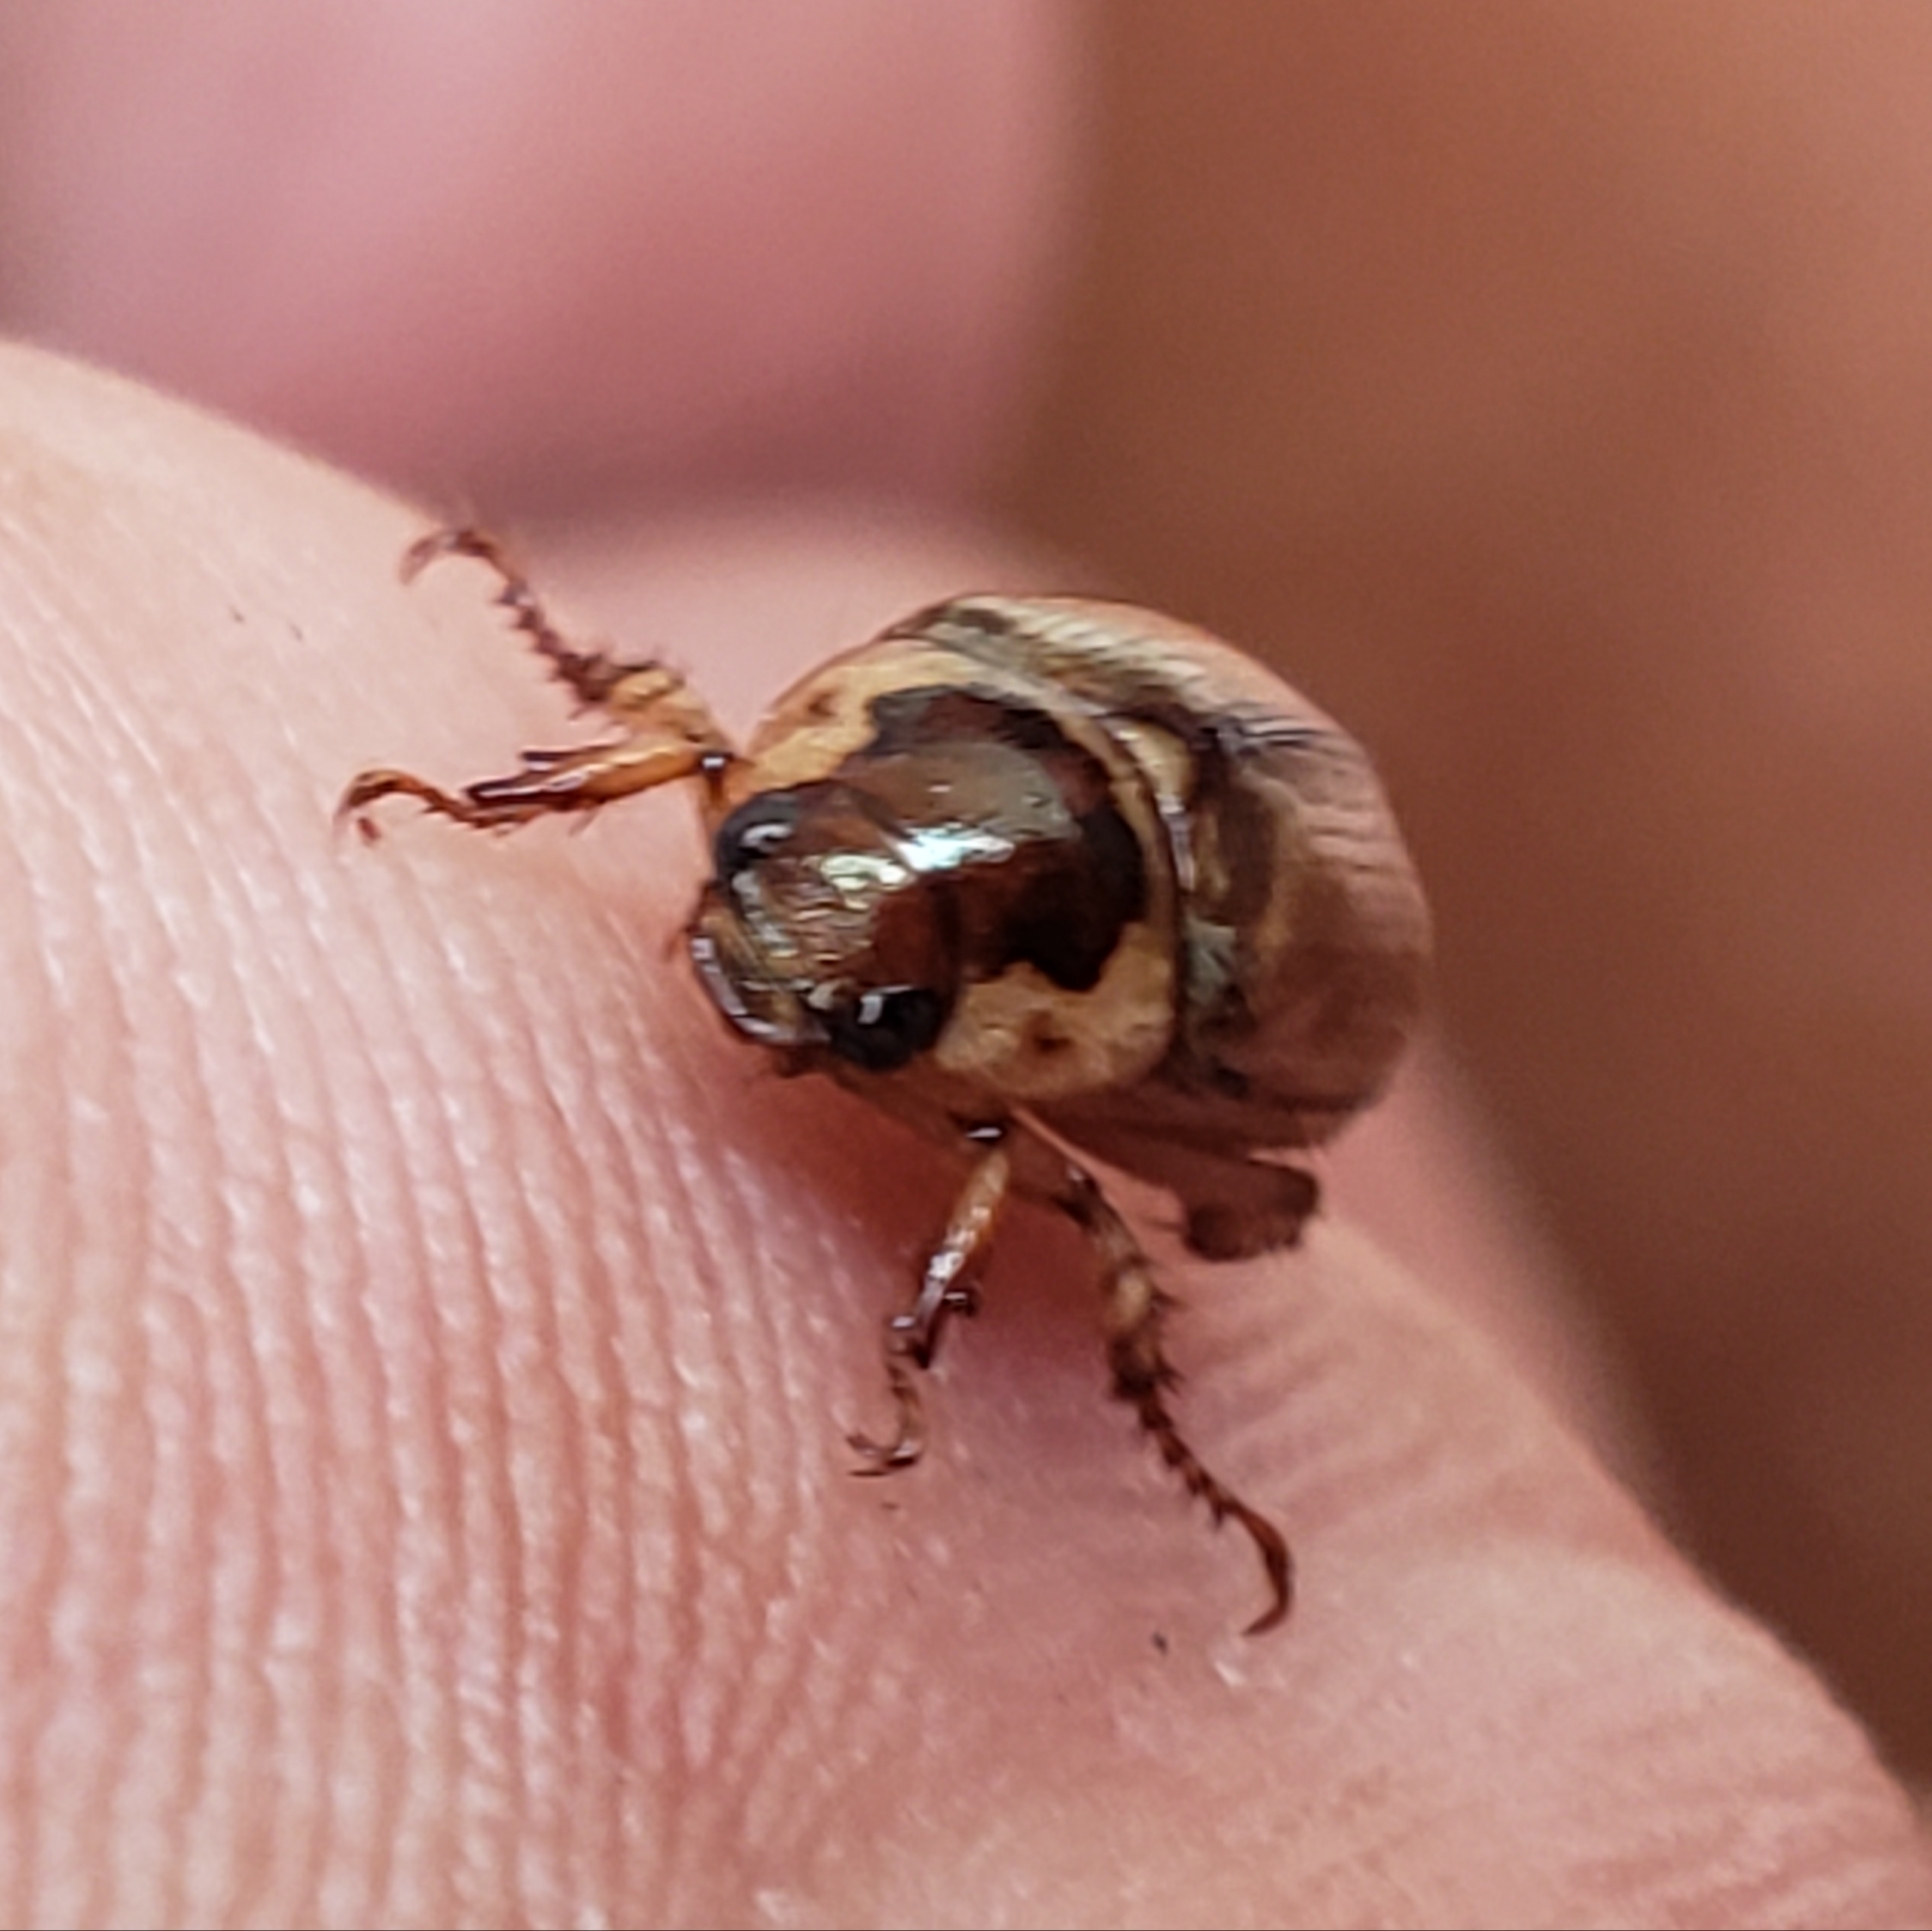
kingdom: Animalia
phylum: Arthropoda
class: Insecta
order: Coleoptera
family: Scarabaeidae
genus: Anomala
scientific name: Anomala innuba
